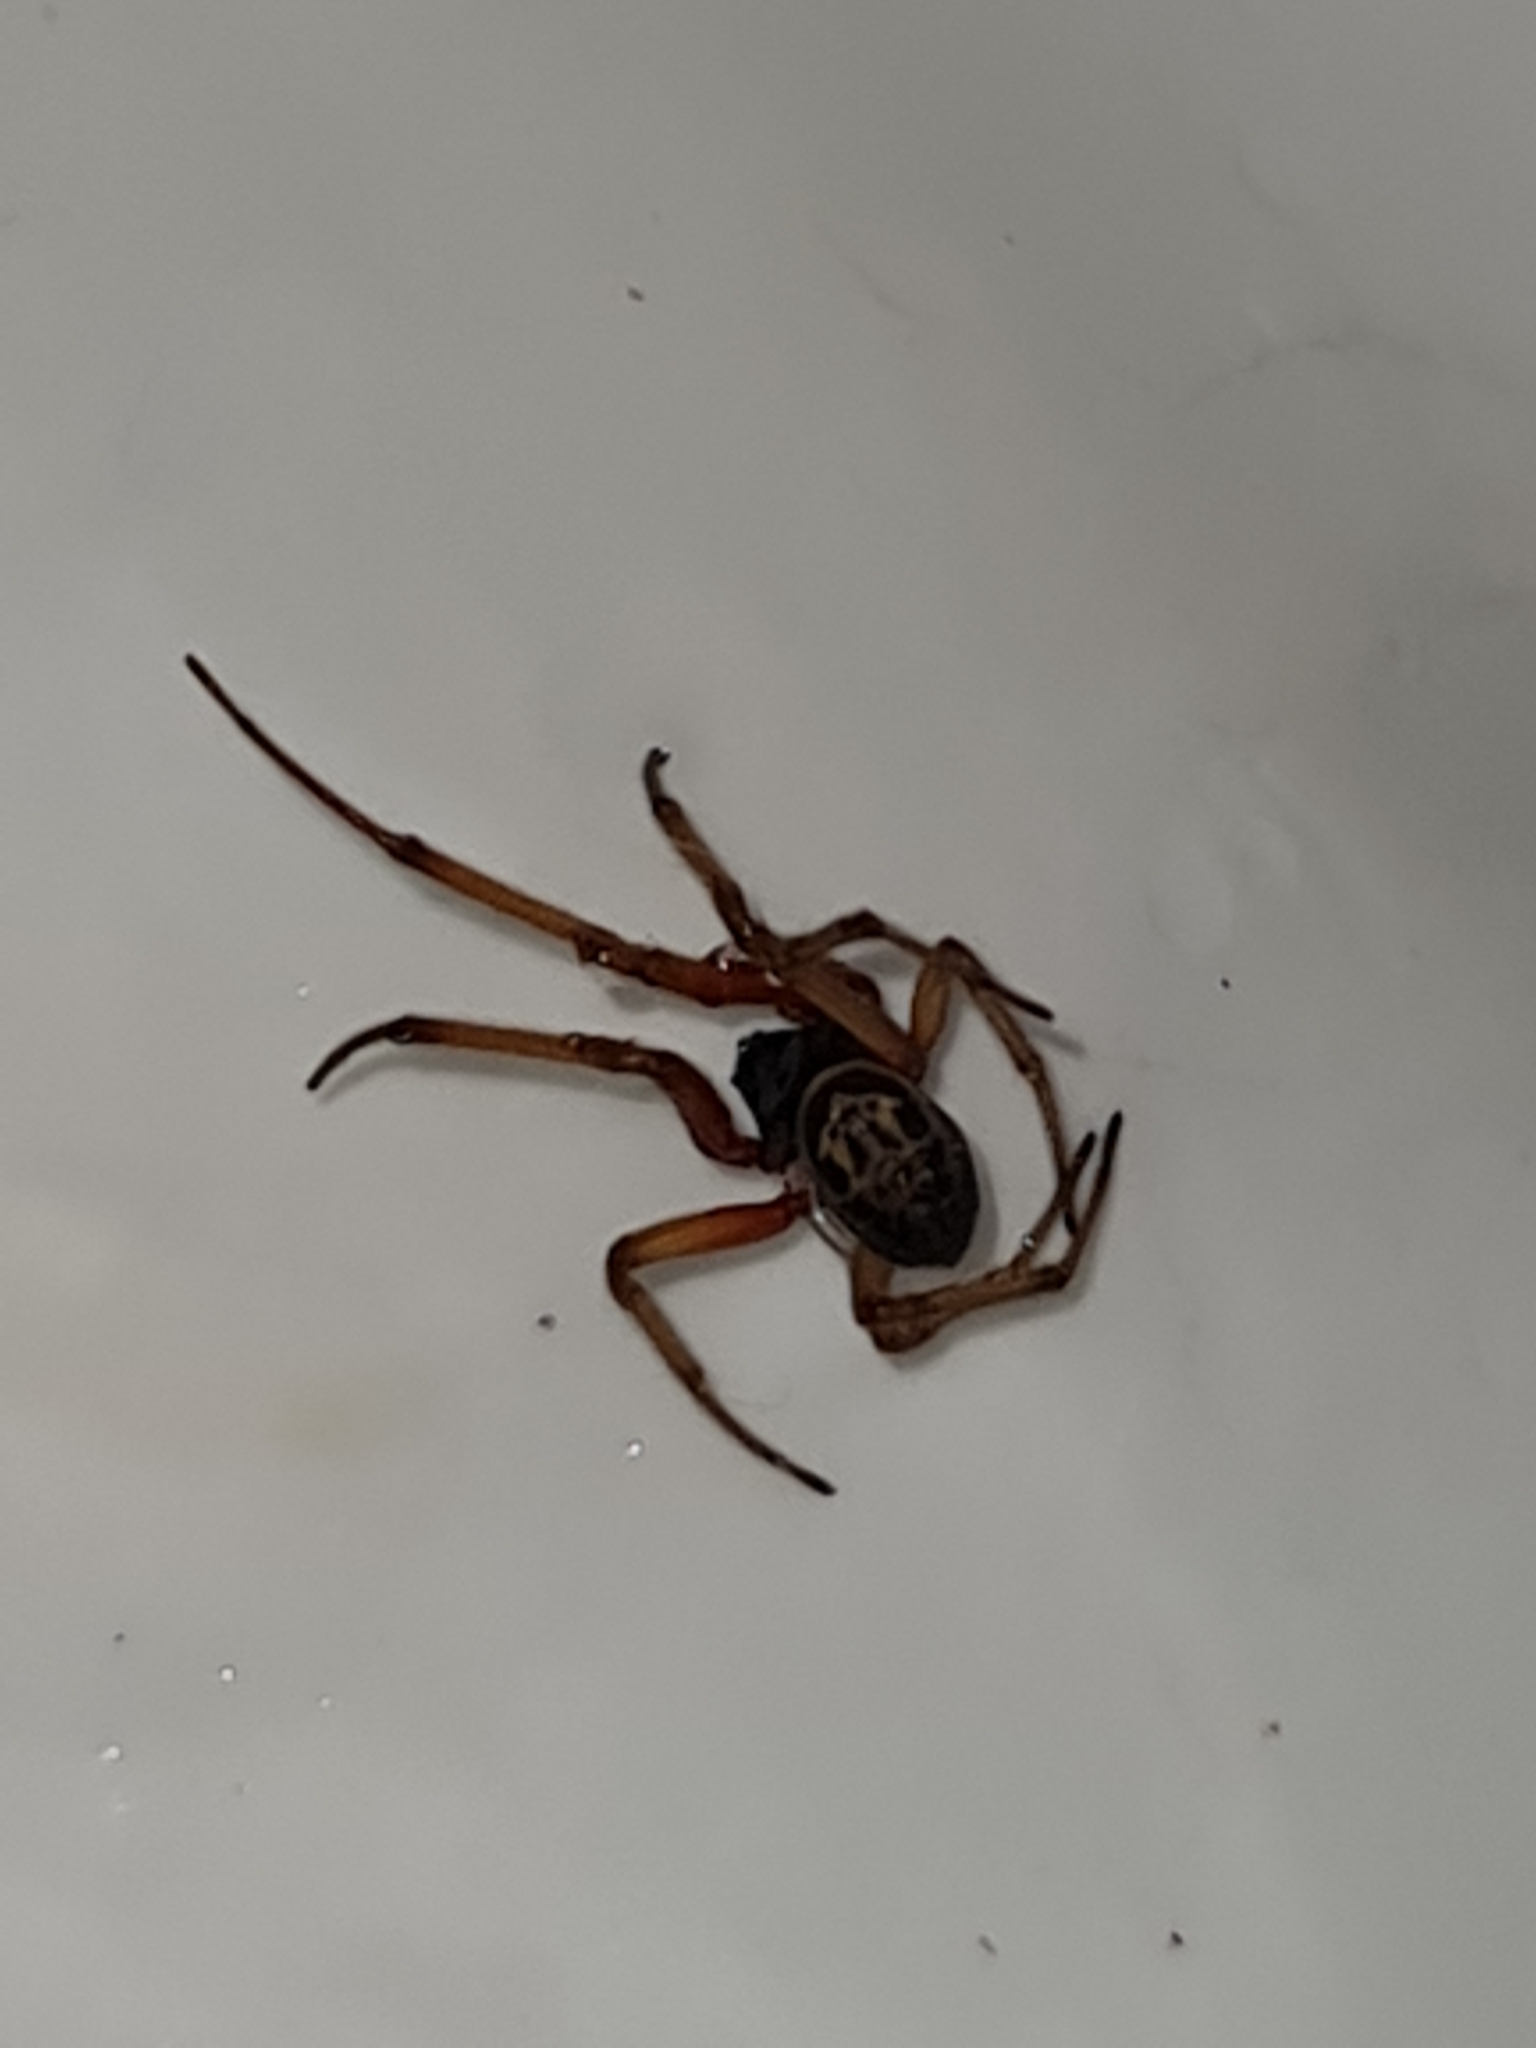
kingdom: Animalia
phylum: Arthropoda
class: Arachnida
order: Araneae
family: Theridiidae
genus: Steatoda
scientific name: Steatoda nobilis
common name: Cobweb weaver
